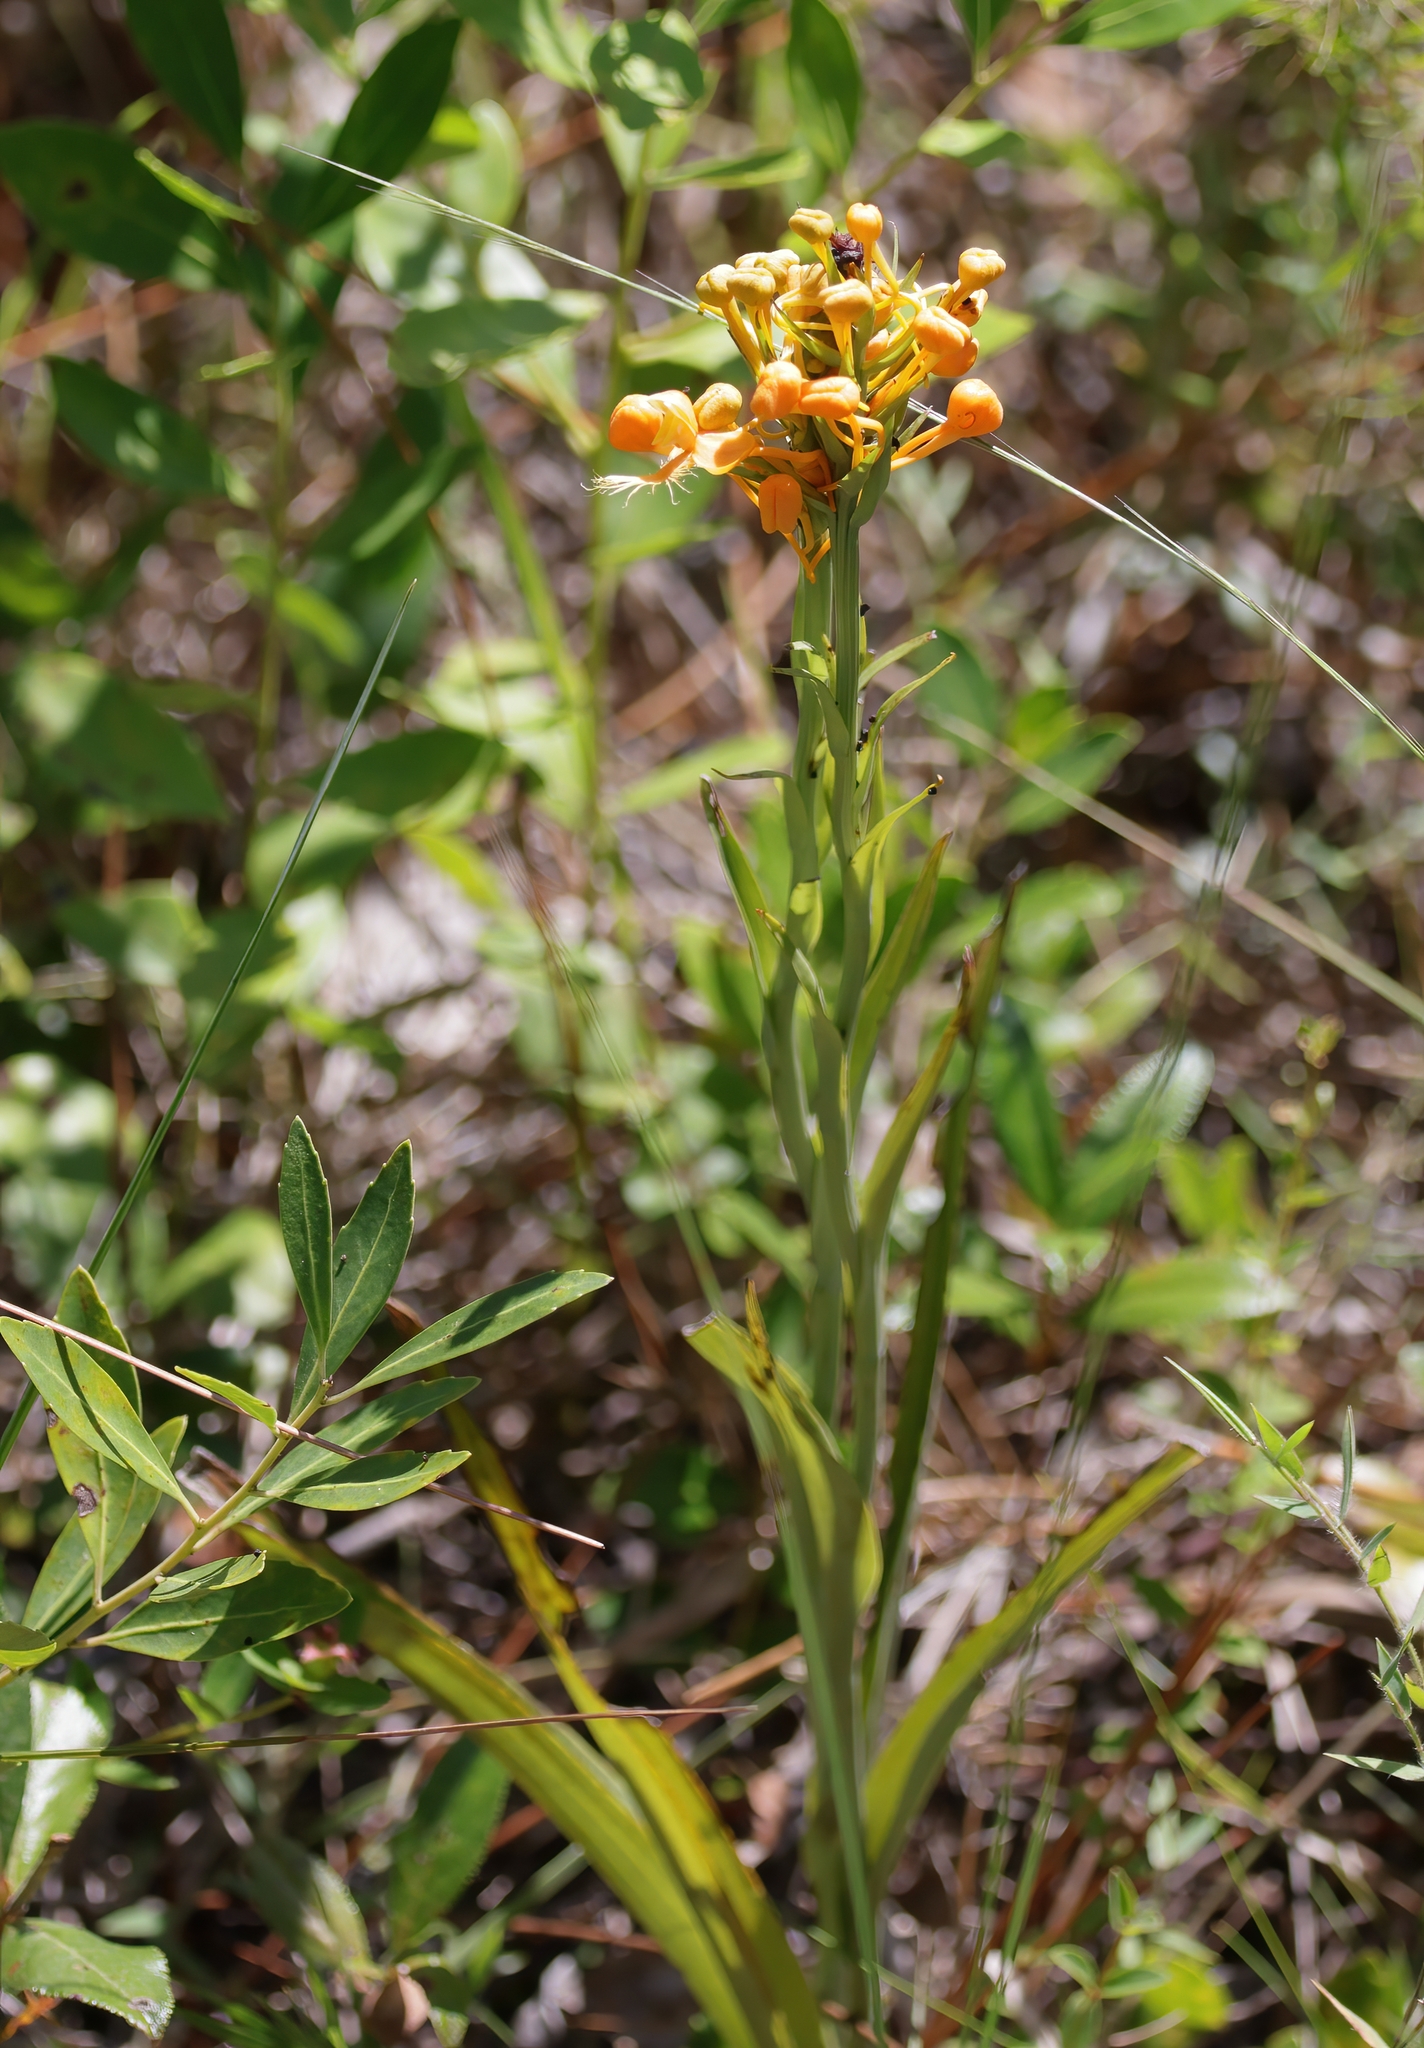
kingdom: Plantae
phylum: Tracheophyta
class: Liliopsida
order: Asparagales
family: Orchidaceae
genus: Platanthera
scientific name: Platanthera ciliaris
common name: Yellow fringed orchid
